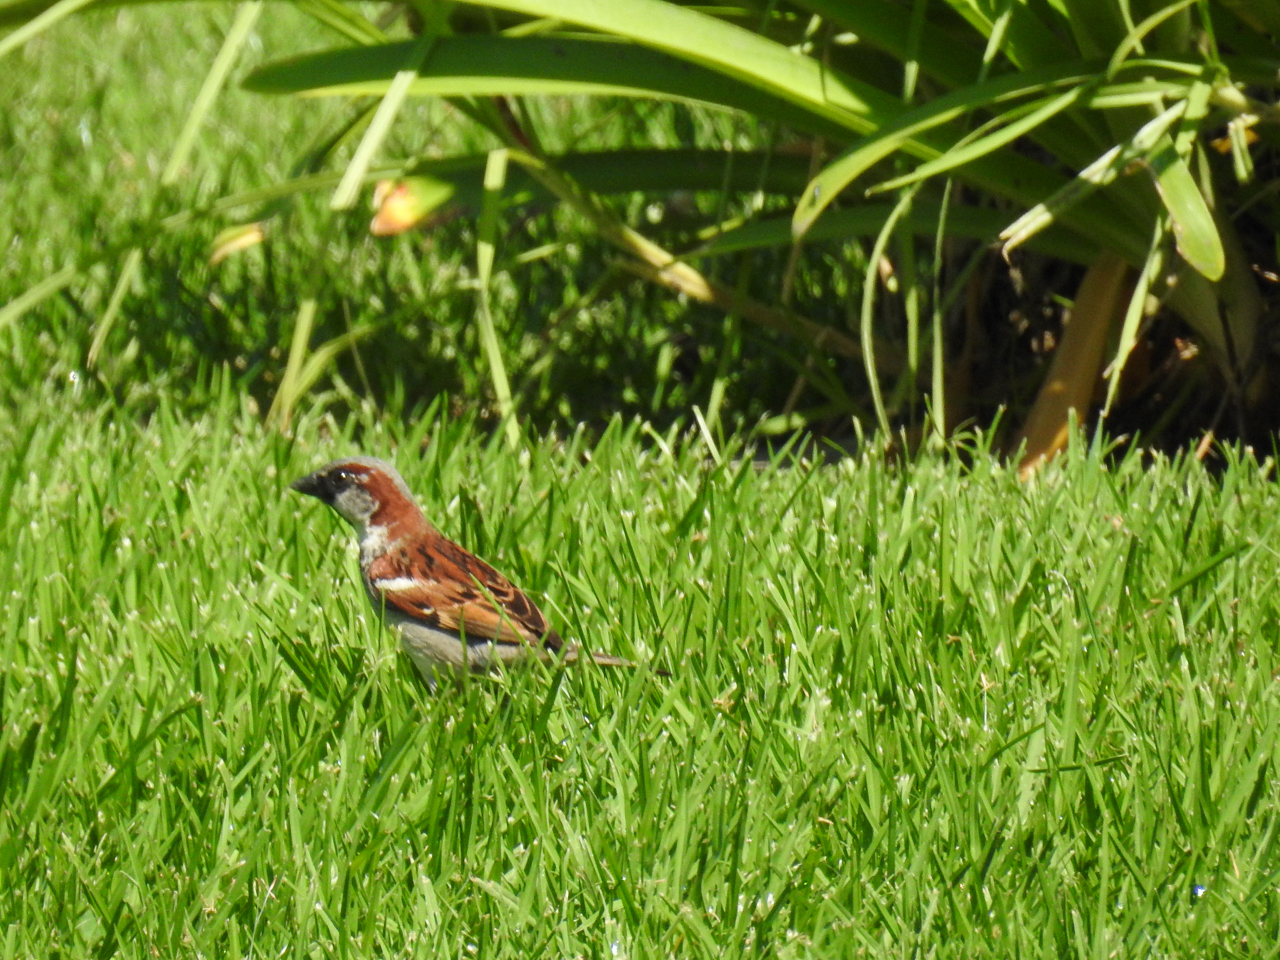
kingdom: Animalia
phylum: Chordata
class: Aves
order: Passeriformes
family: Passeridae
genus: Passer
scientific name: Passer domesticus
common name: House sparrow
